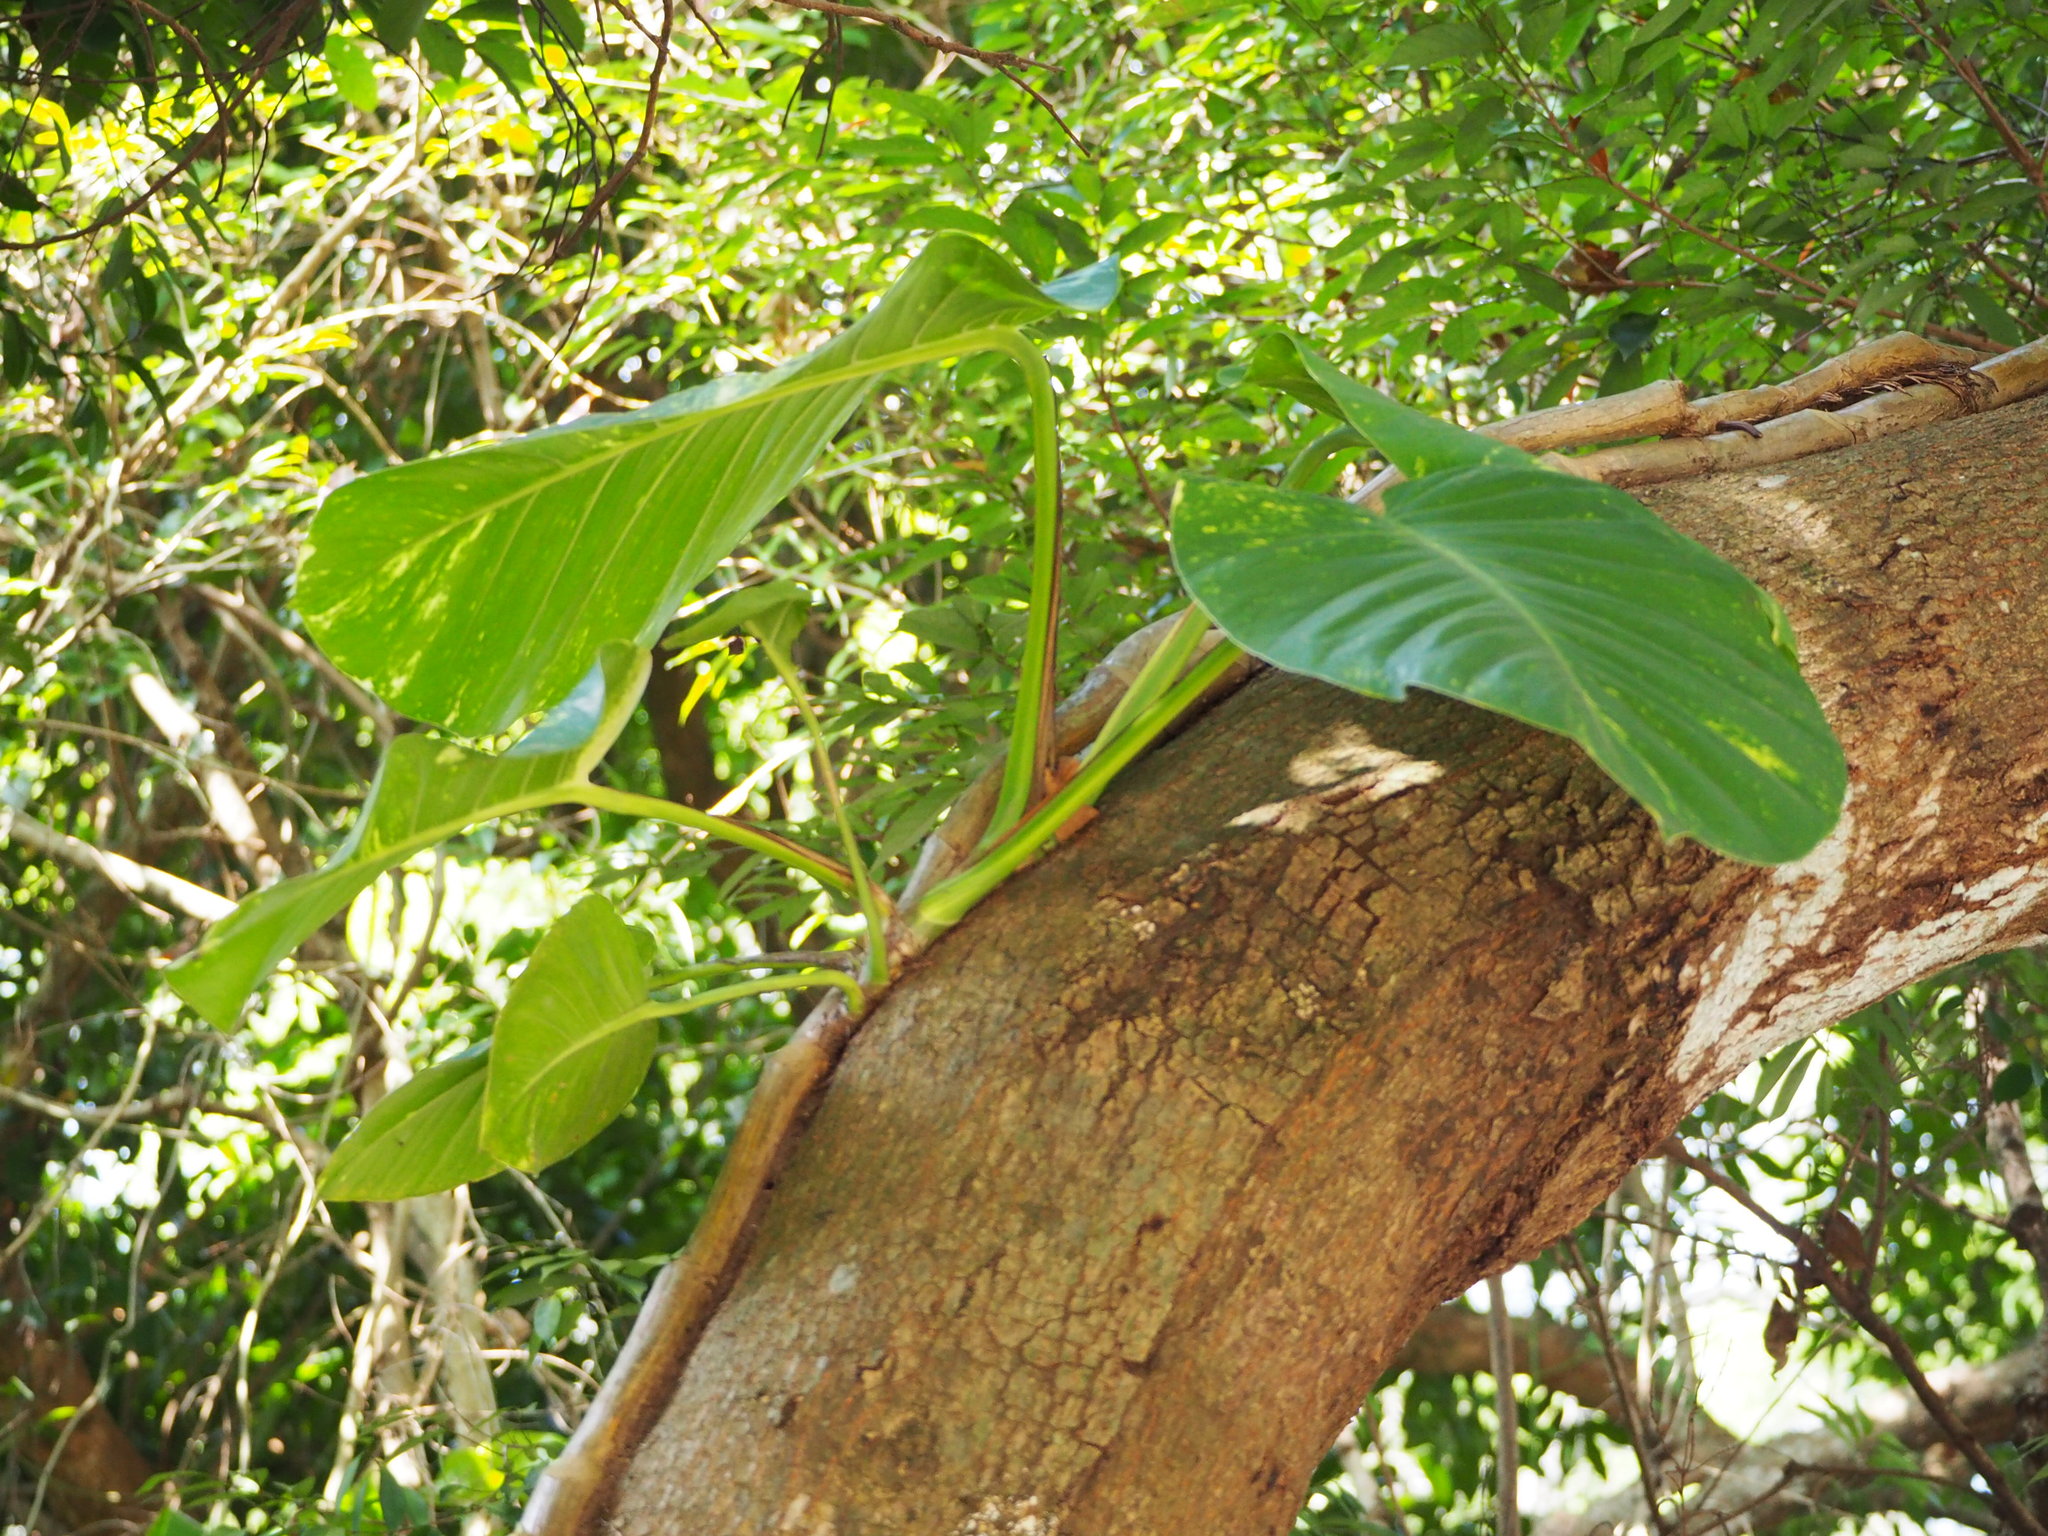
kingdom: Plantae
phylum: Tracheophyta
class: Liliopsida
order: Alismatales
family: Araceae
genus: Epipremnum
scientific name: Epipremnum aureum
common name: Golden hunter's-robe
